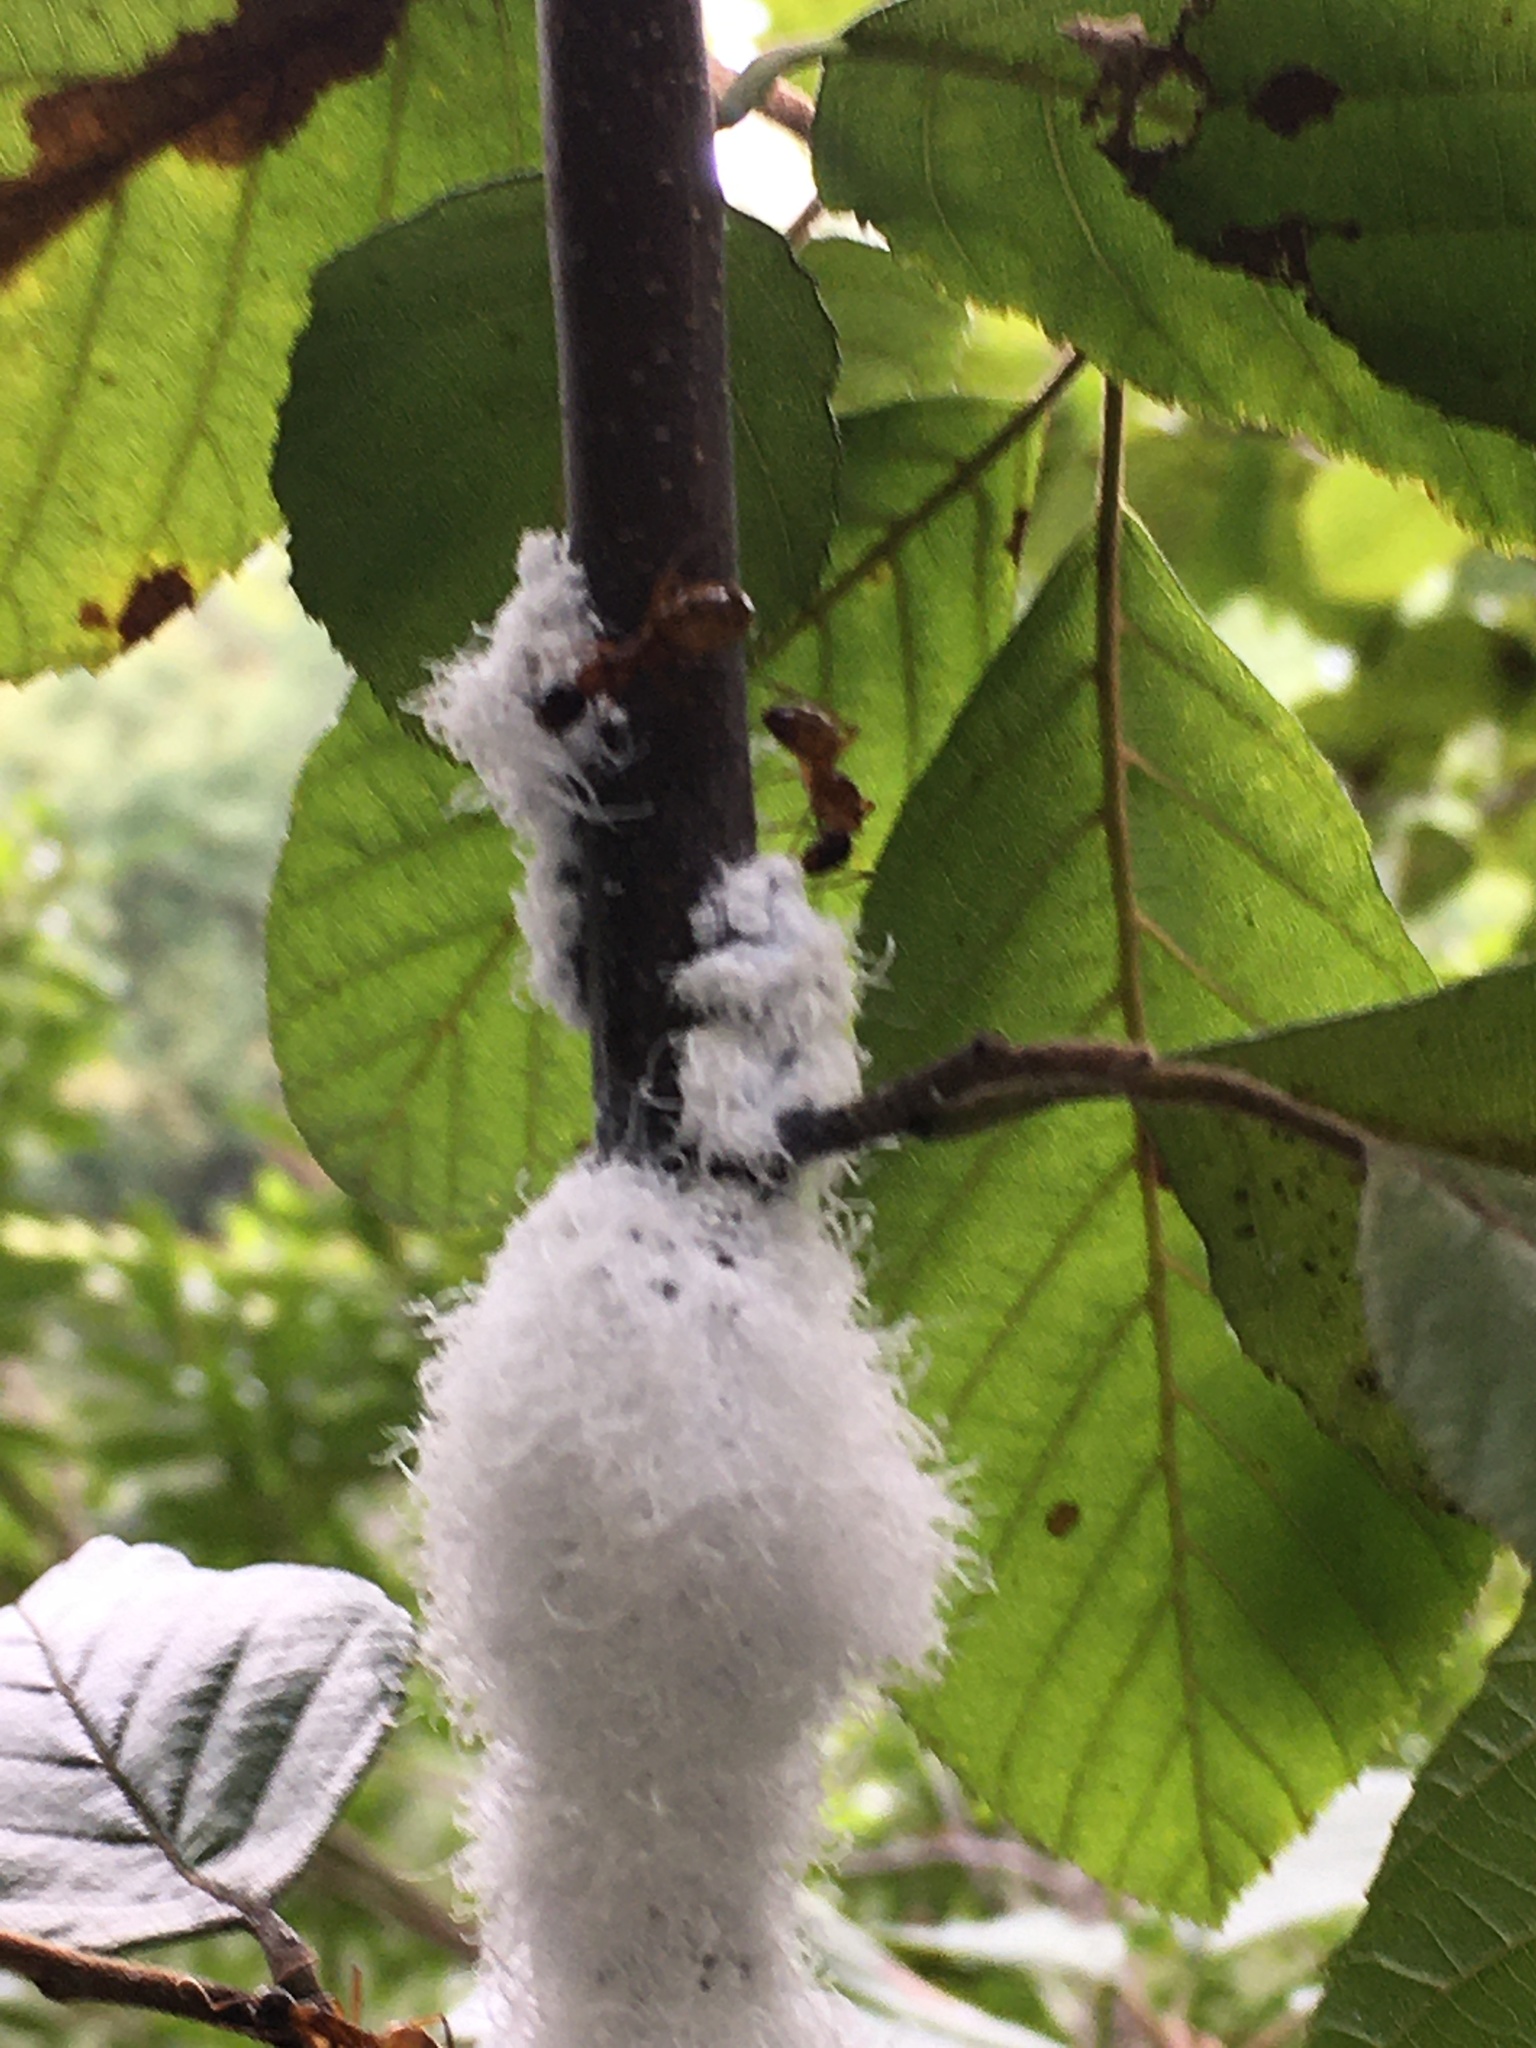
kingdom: Animalia
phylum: Arthropoda
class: Insecta
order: Hemiptera
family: Aphididae
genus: Prociphilus
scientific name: Prociphilus tessellatus
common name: Woolly alder aphid
